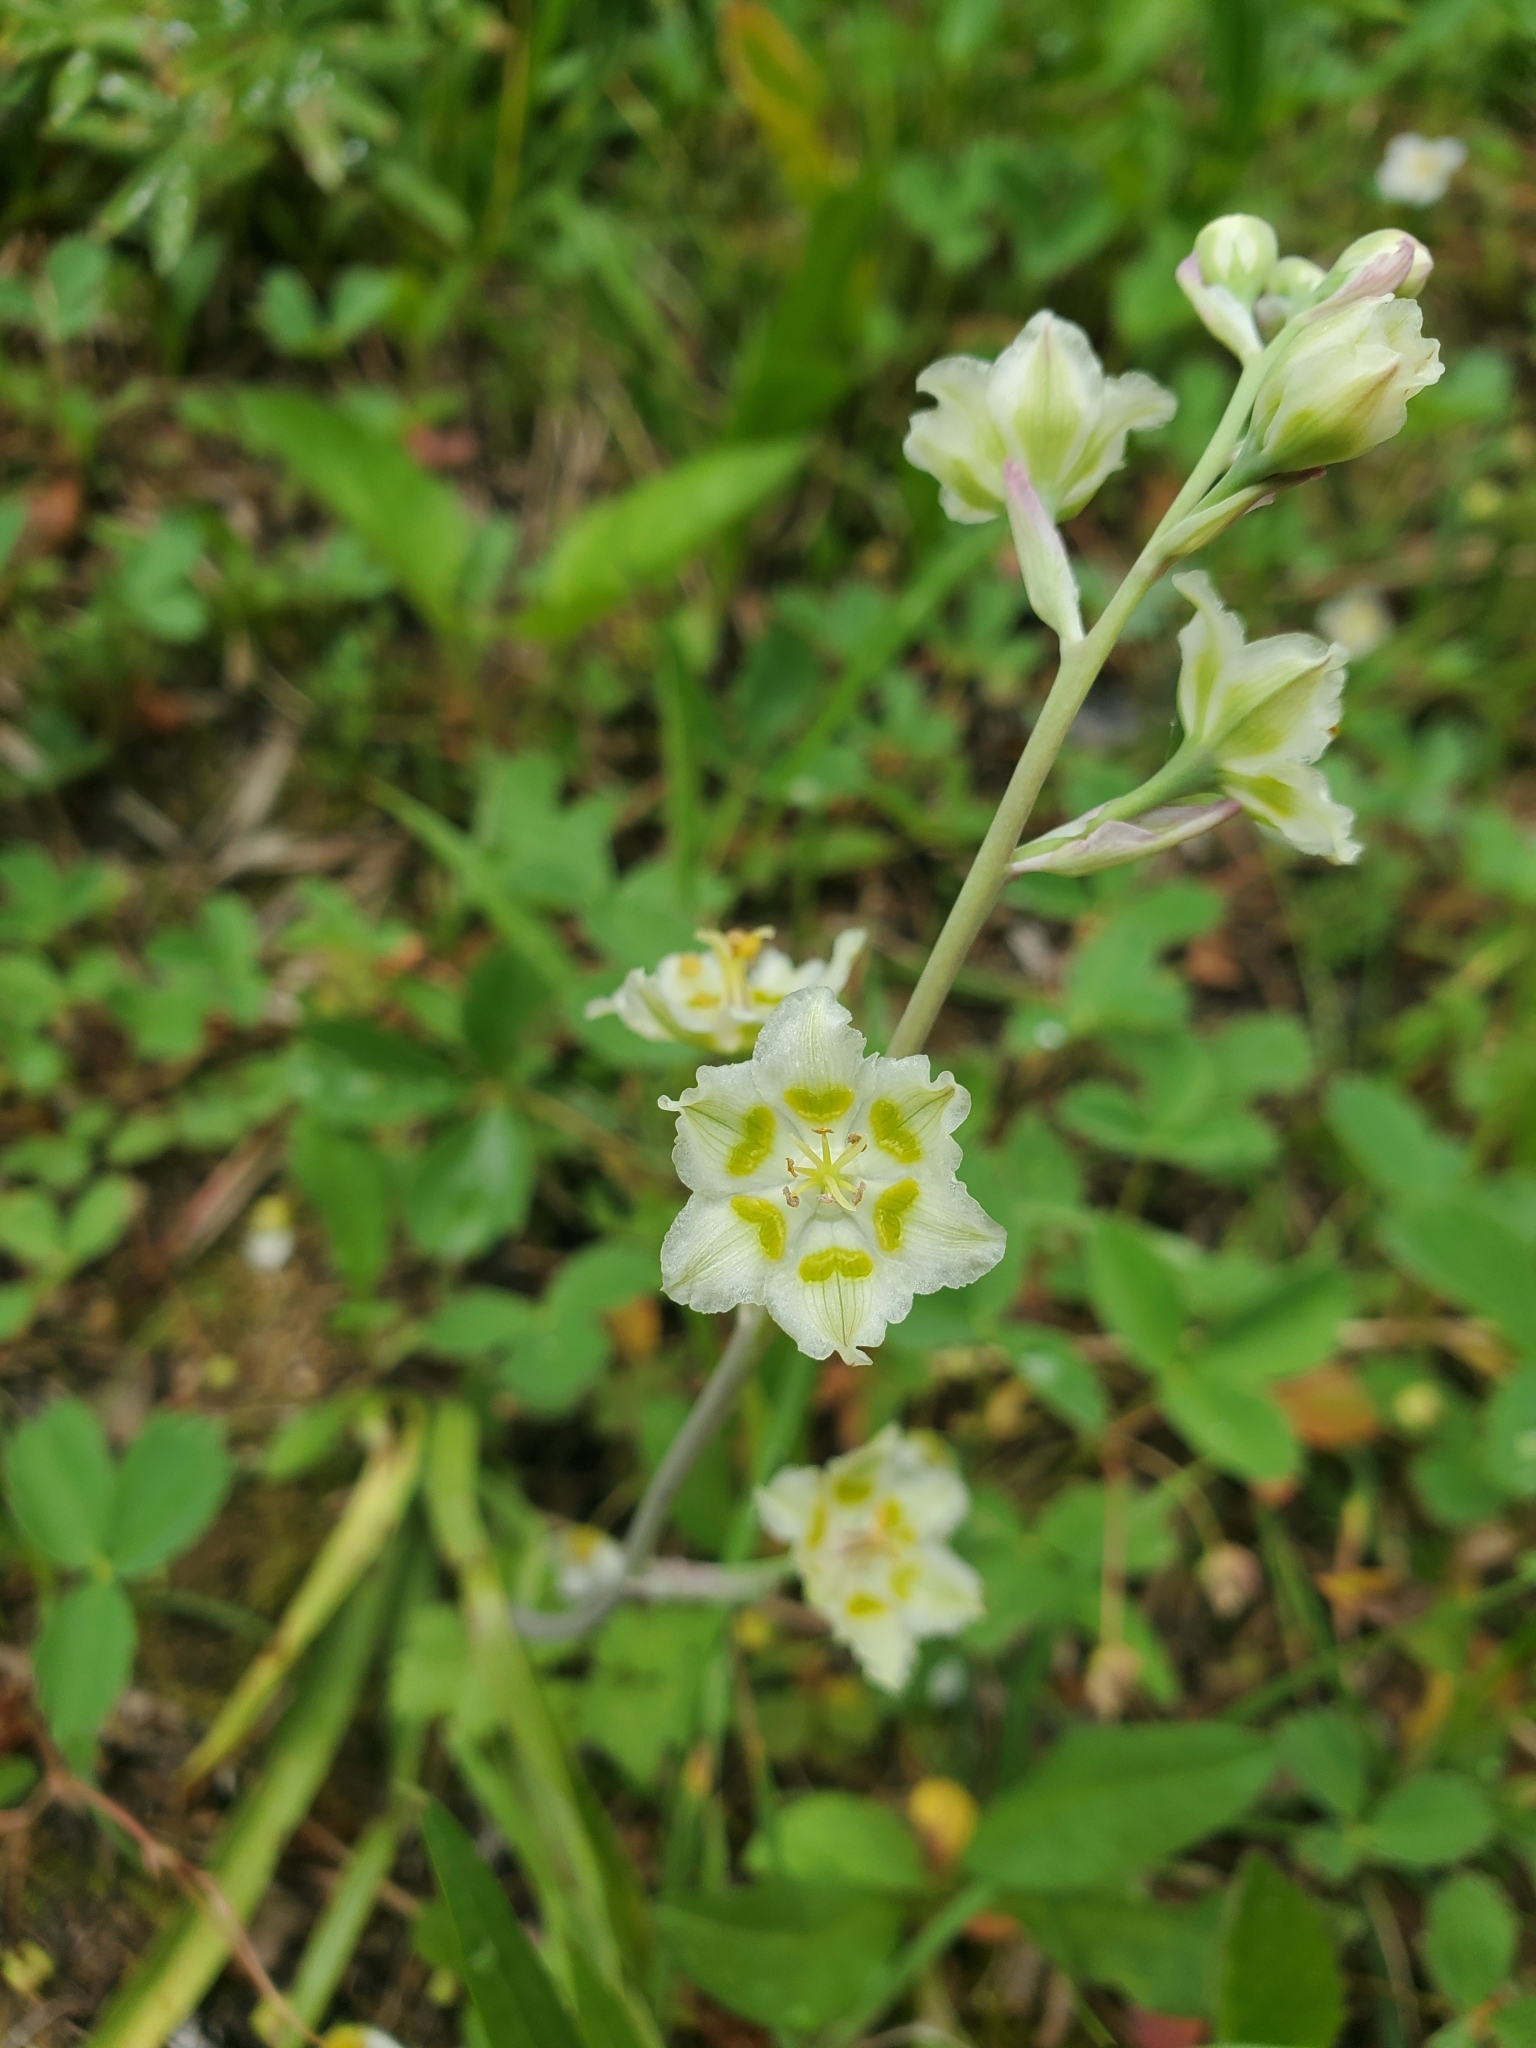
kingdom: Plantae
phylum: Tracheophyta
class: Liliopsida
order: Liliales
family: Melanthiaceae
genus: Anticlea
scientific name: Anticlea elegans
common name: Mountain death camas
